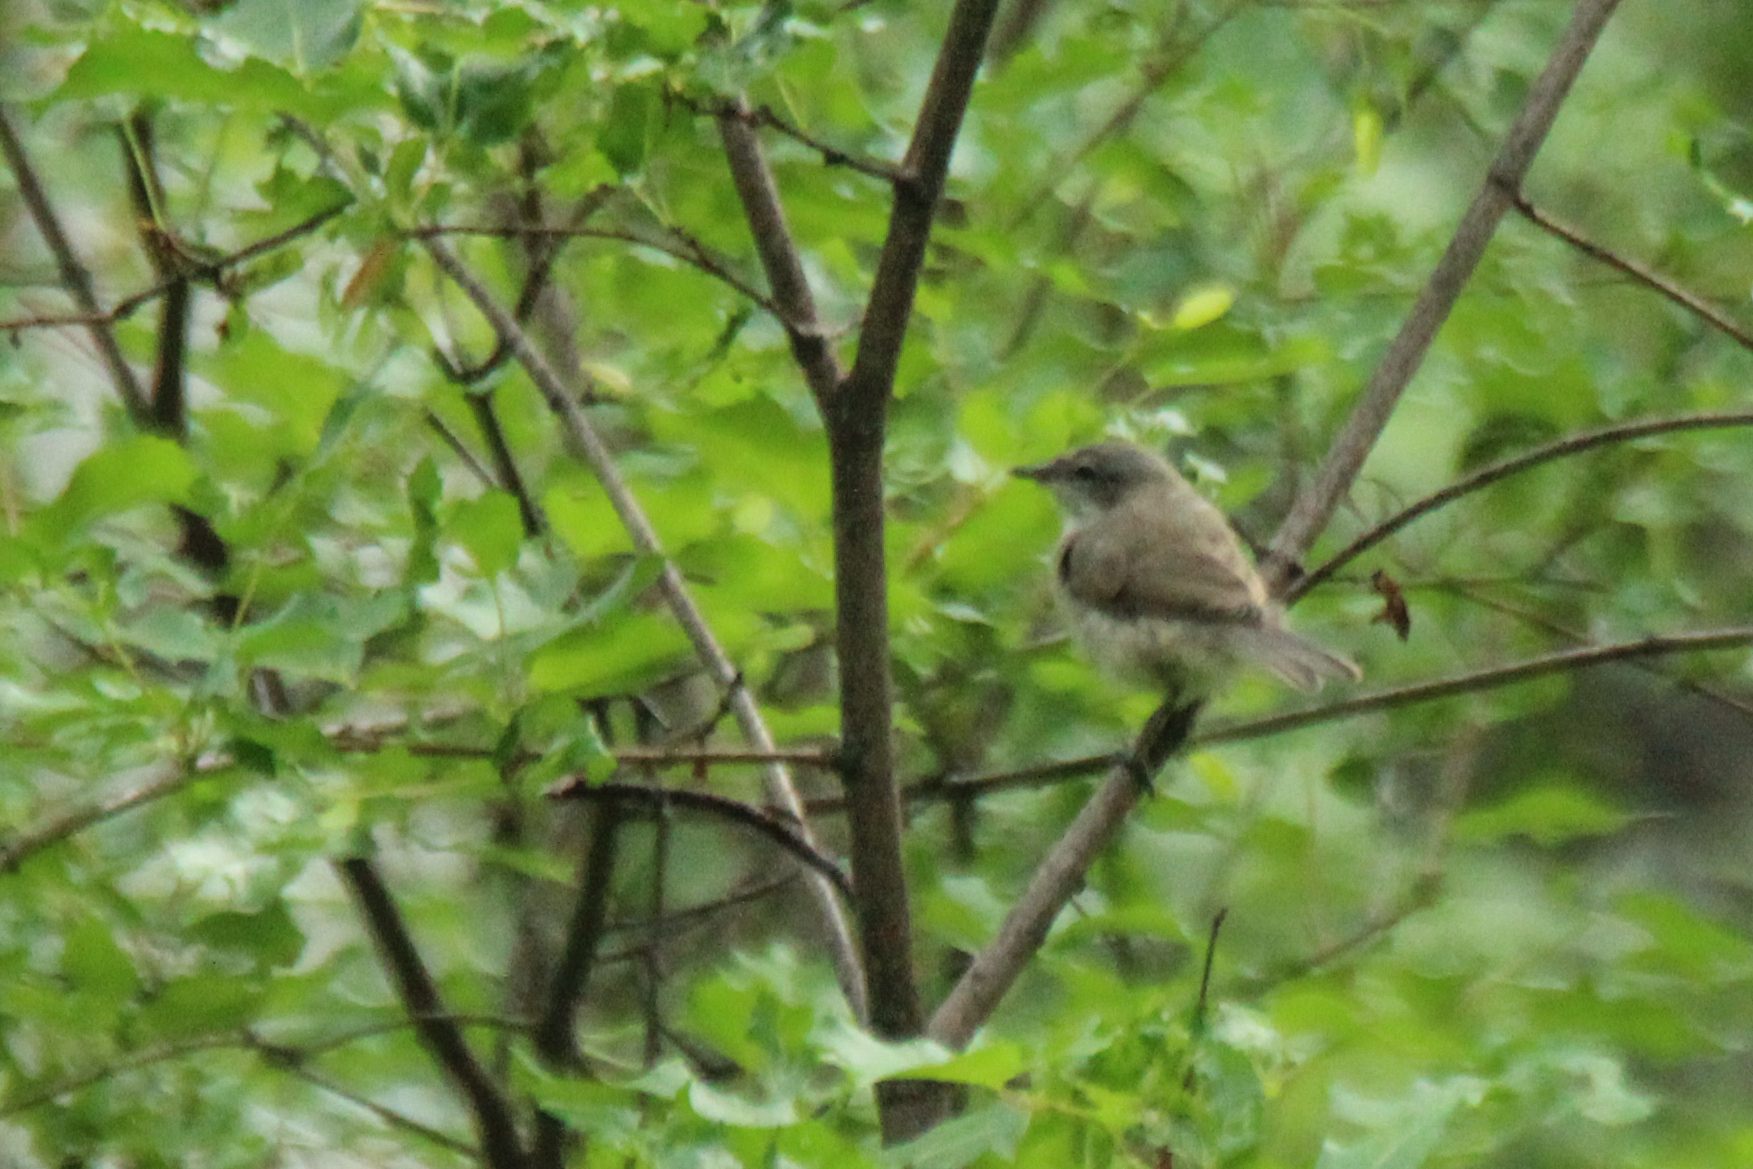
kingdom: Animalia
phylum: Chordata
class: Aves
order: Passeriformes
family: Sylviidae
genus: Sylvia
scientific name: Sylvia curruca
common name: Lesser whitethroat
